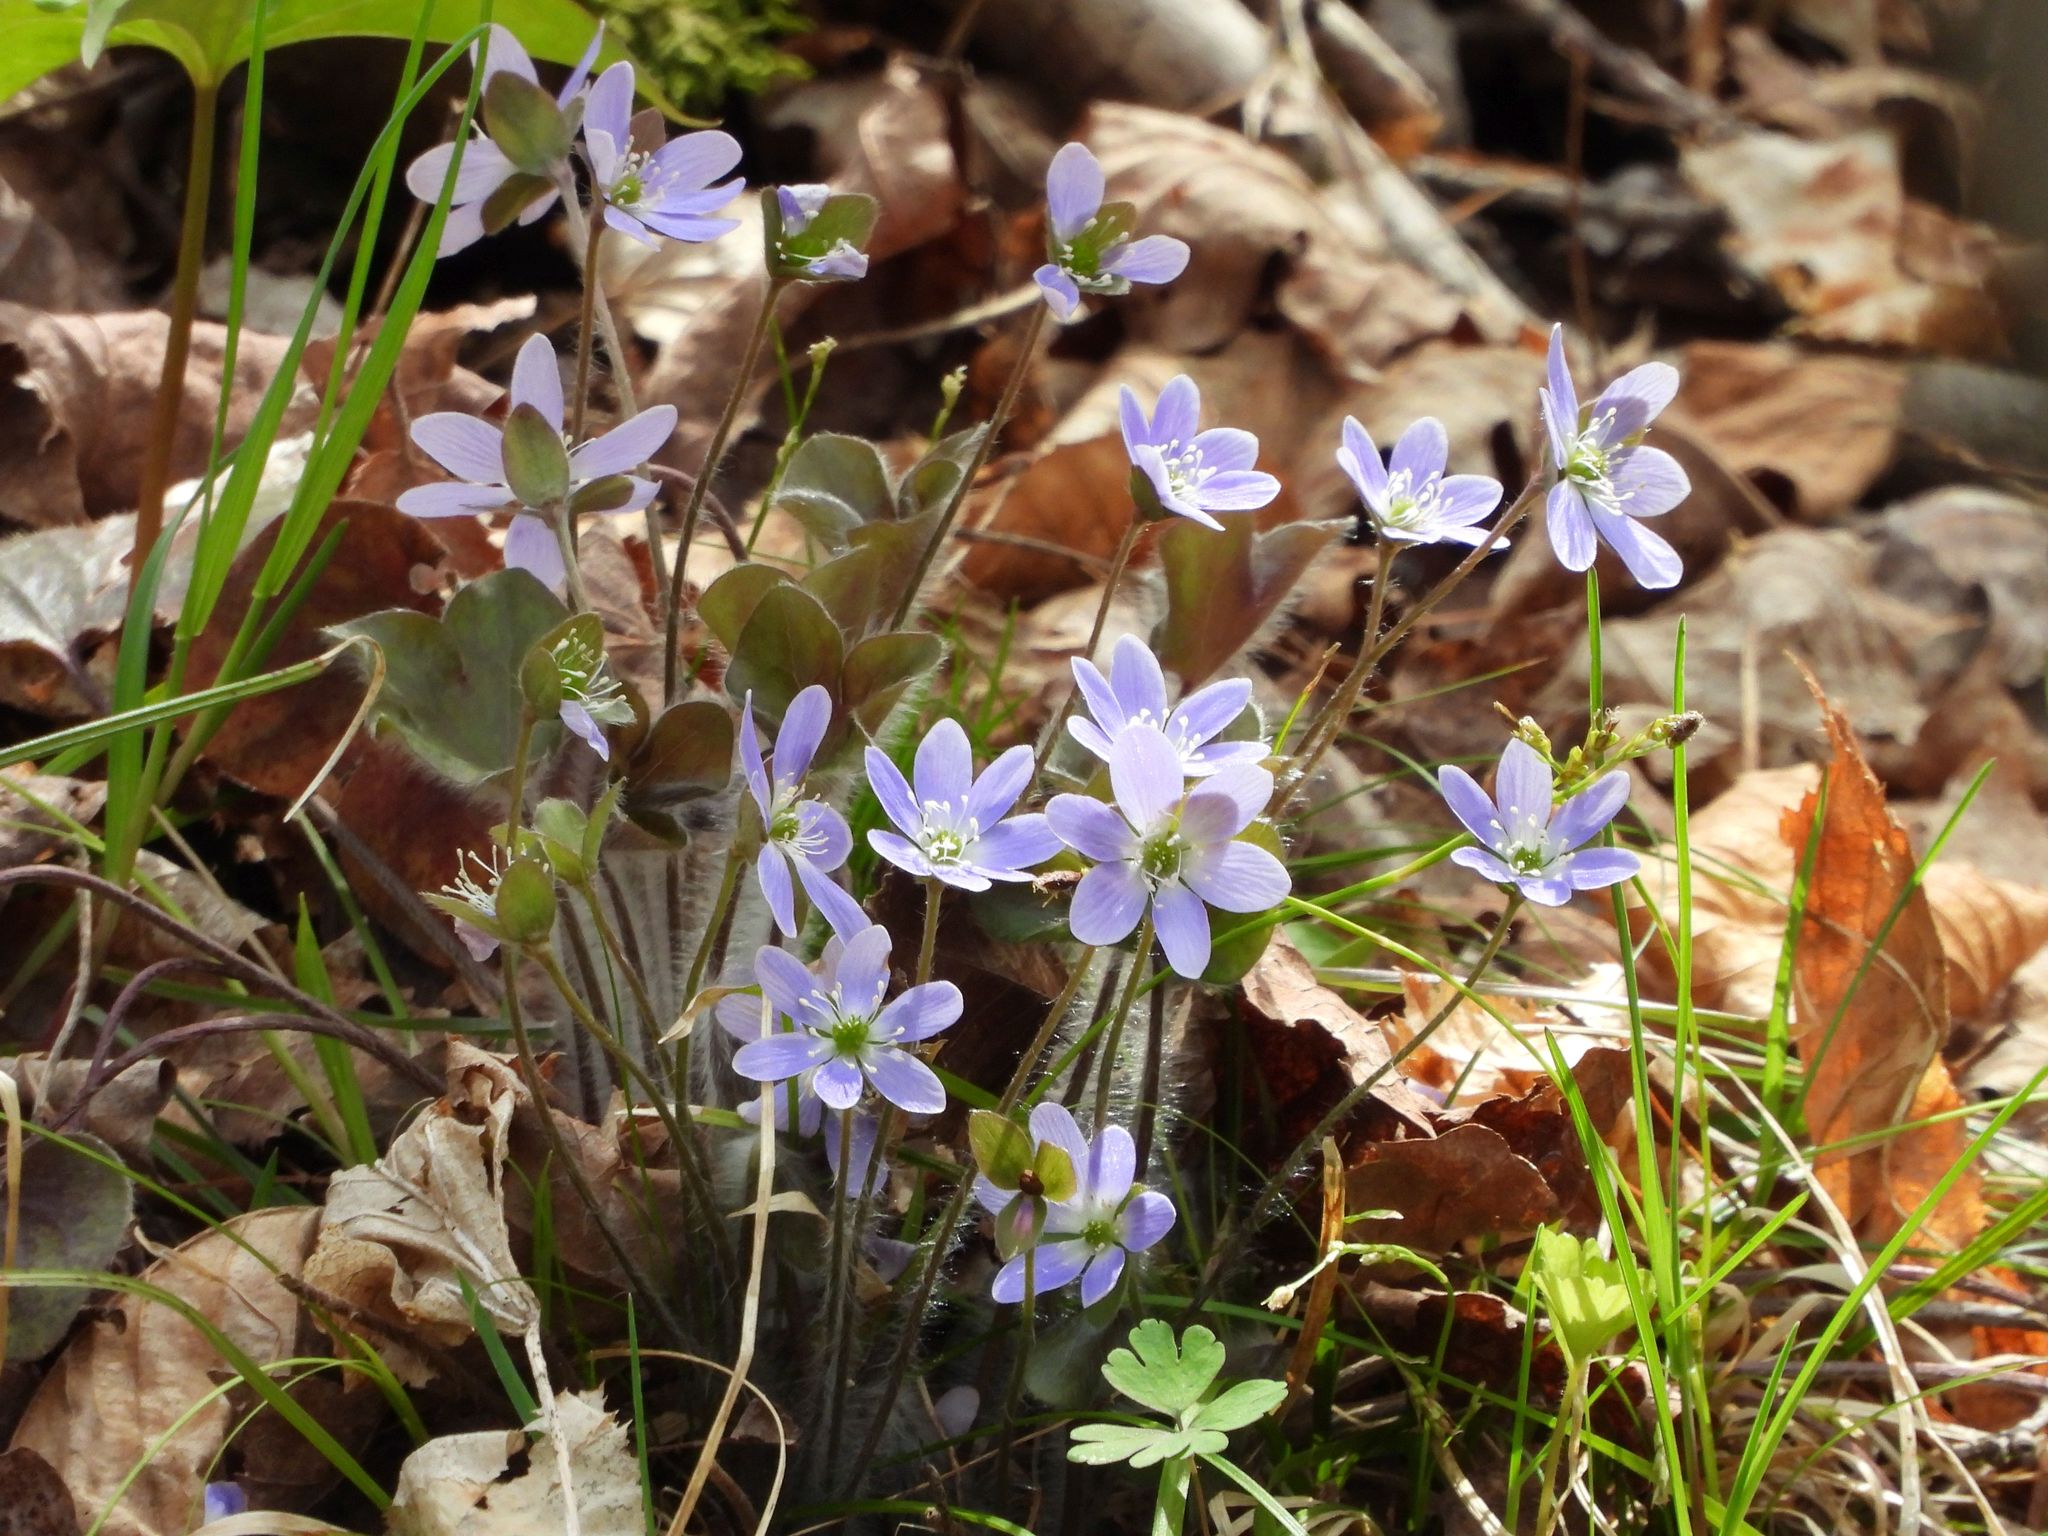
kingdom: Plantae
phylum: Tracheophyta
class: Magnoliopsida
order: Ranunculales
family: Ranunculaceae
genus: Hepatica
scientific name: Hepatica americana
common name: American hepatica
